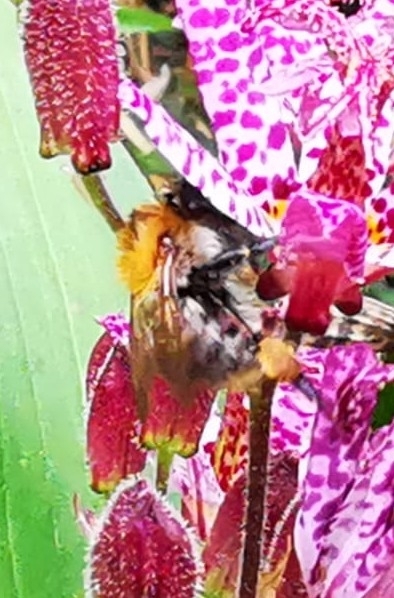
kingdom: Animalia
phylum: Arthropoda
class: Insecta
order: Hymenoptera
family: Apidae
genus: Bombus
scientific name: Bombus pascuorum
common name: Common carder bee
